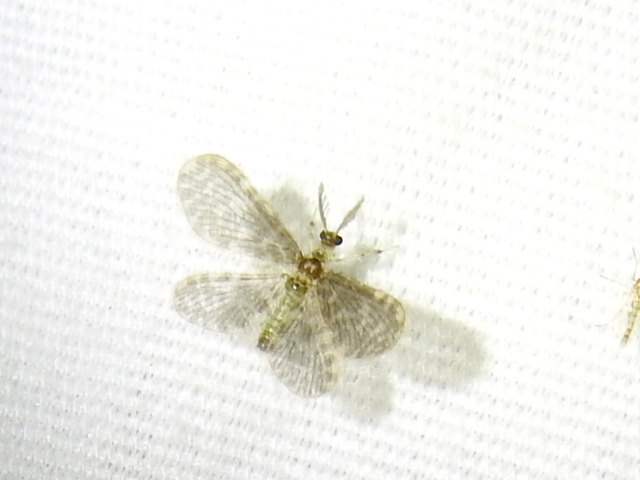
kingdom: Animalia
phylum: Arthropoda
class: Insecta
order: Neuroptera
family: Dilaridae
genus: Nallachius
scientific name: Nallachius americanus
